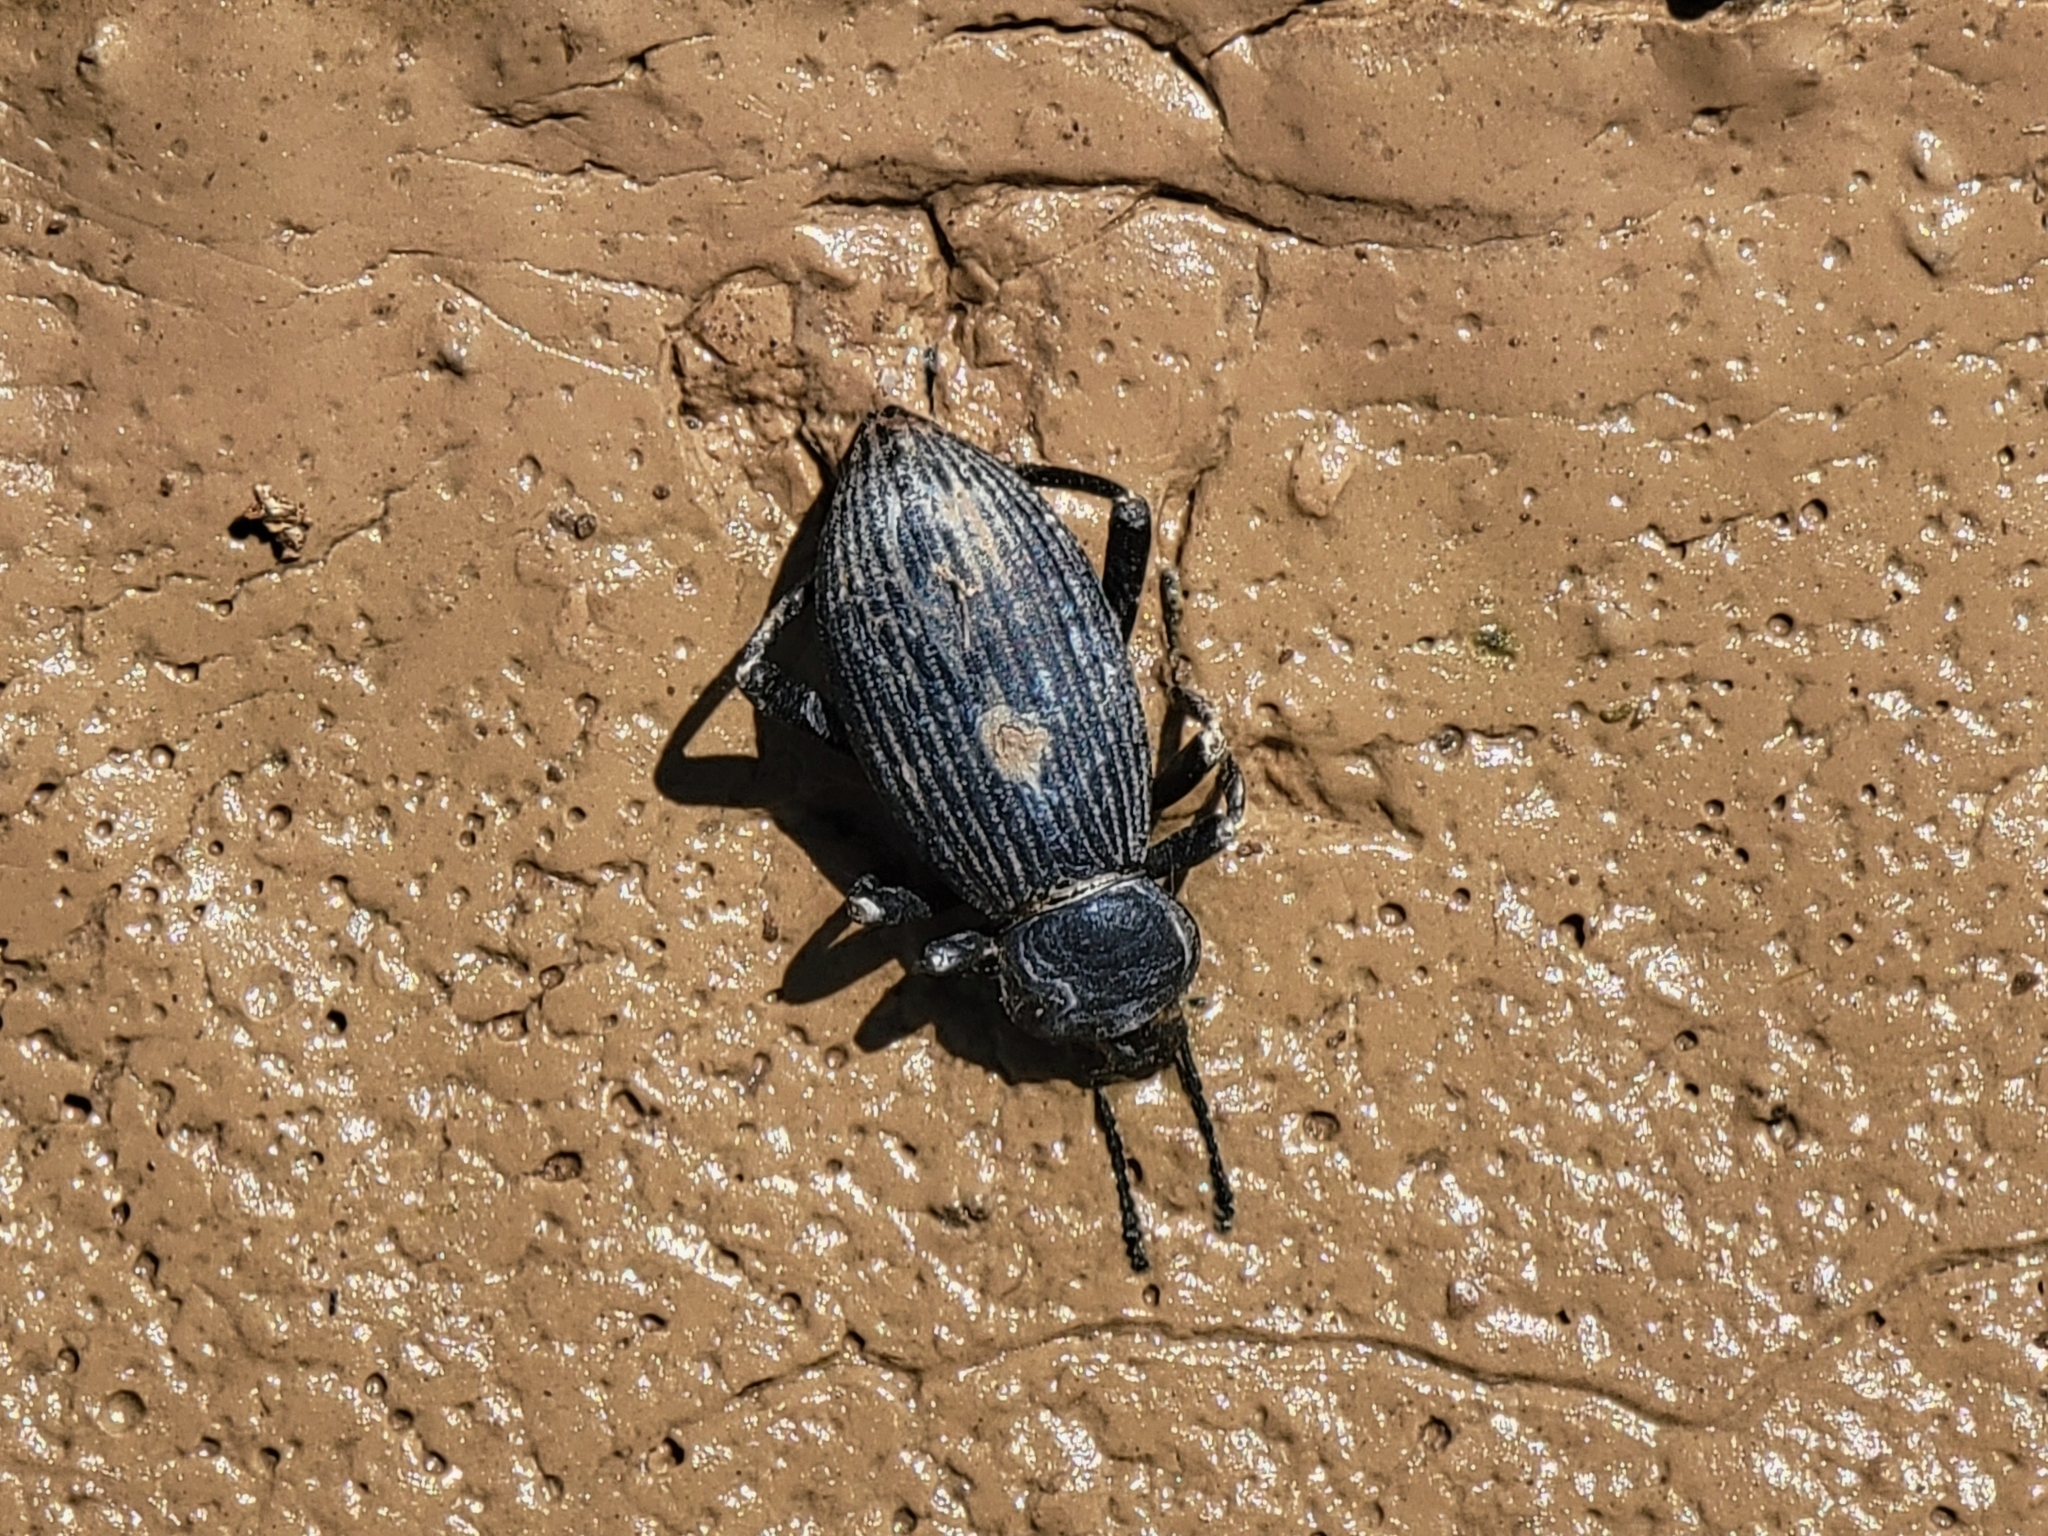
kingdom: Animalia
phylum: Arthropoda
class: Insecta
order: Coleoptera
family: Tenebrionidae
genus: Eleodes
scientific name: Eleodes hispilabris
